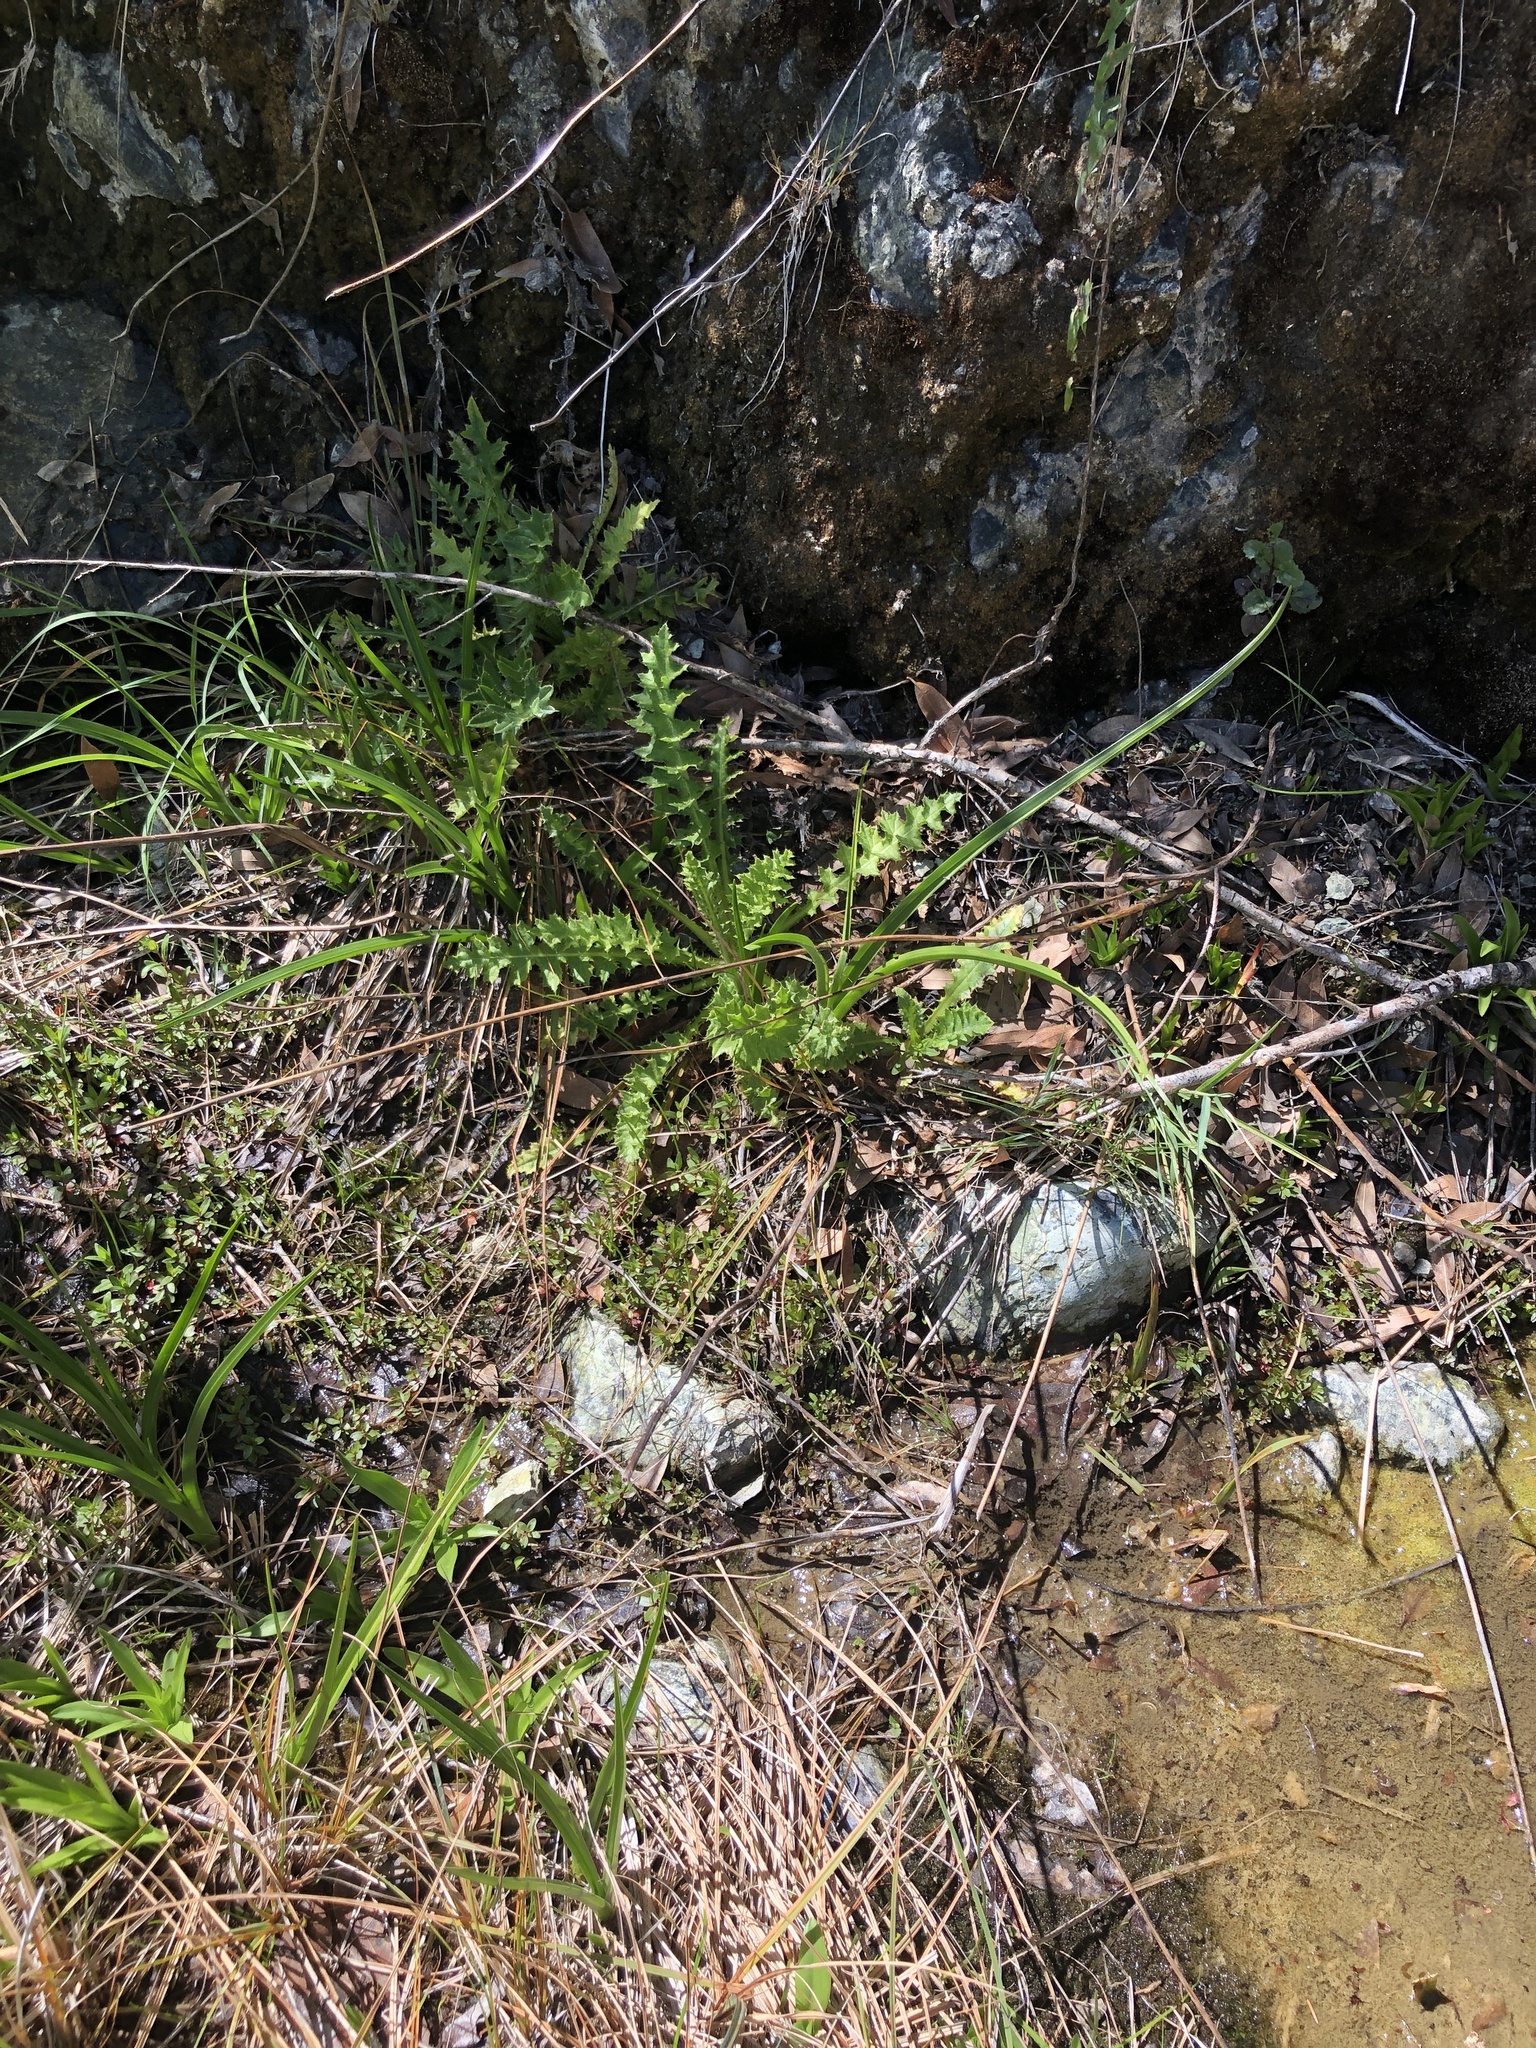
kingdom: Plantae
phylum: Tracheophyta
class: Magnoliopsida
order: Asterales
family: Asteraceae
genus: Cirsium
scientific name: Cirsium hydrophilum
